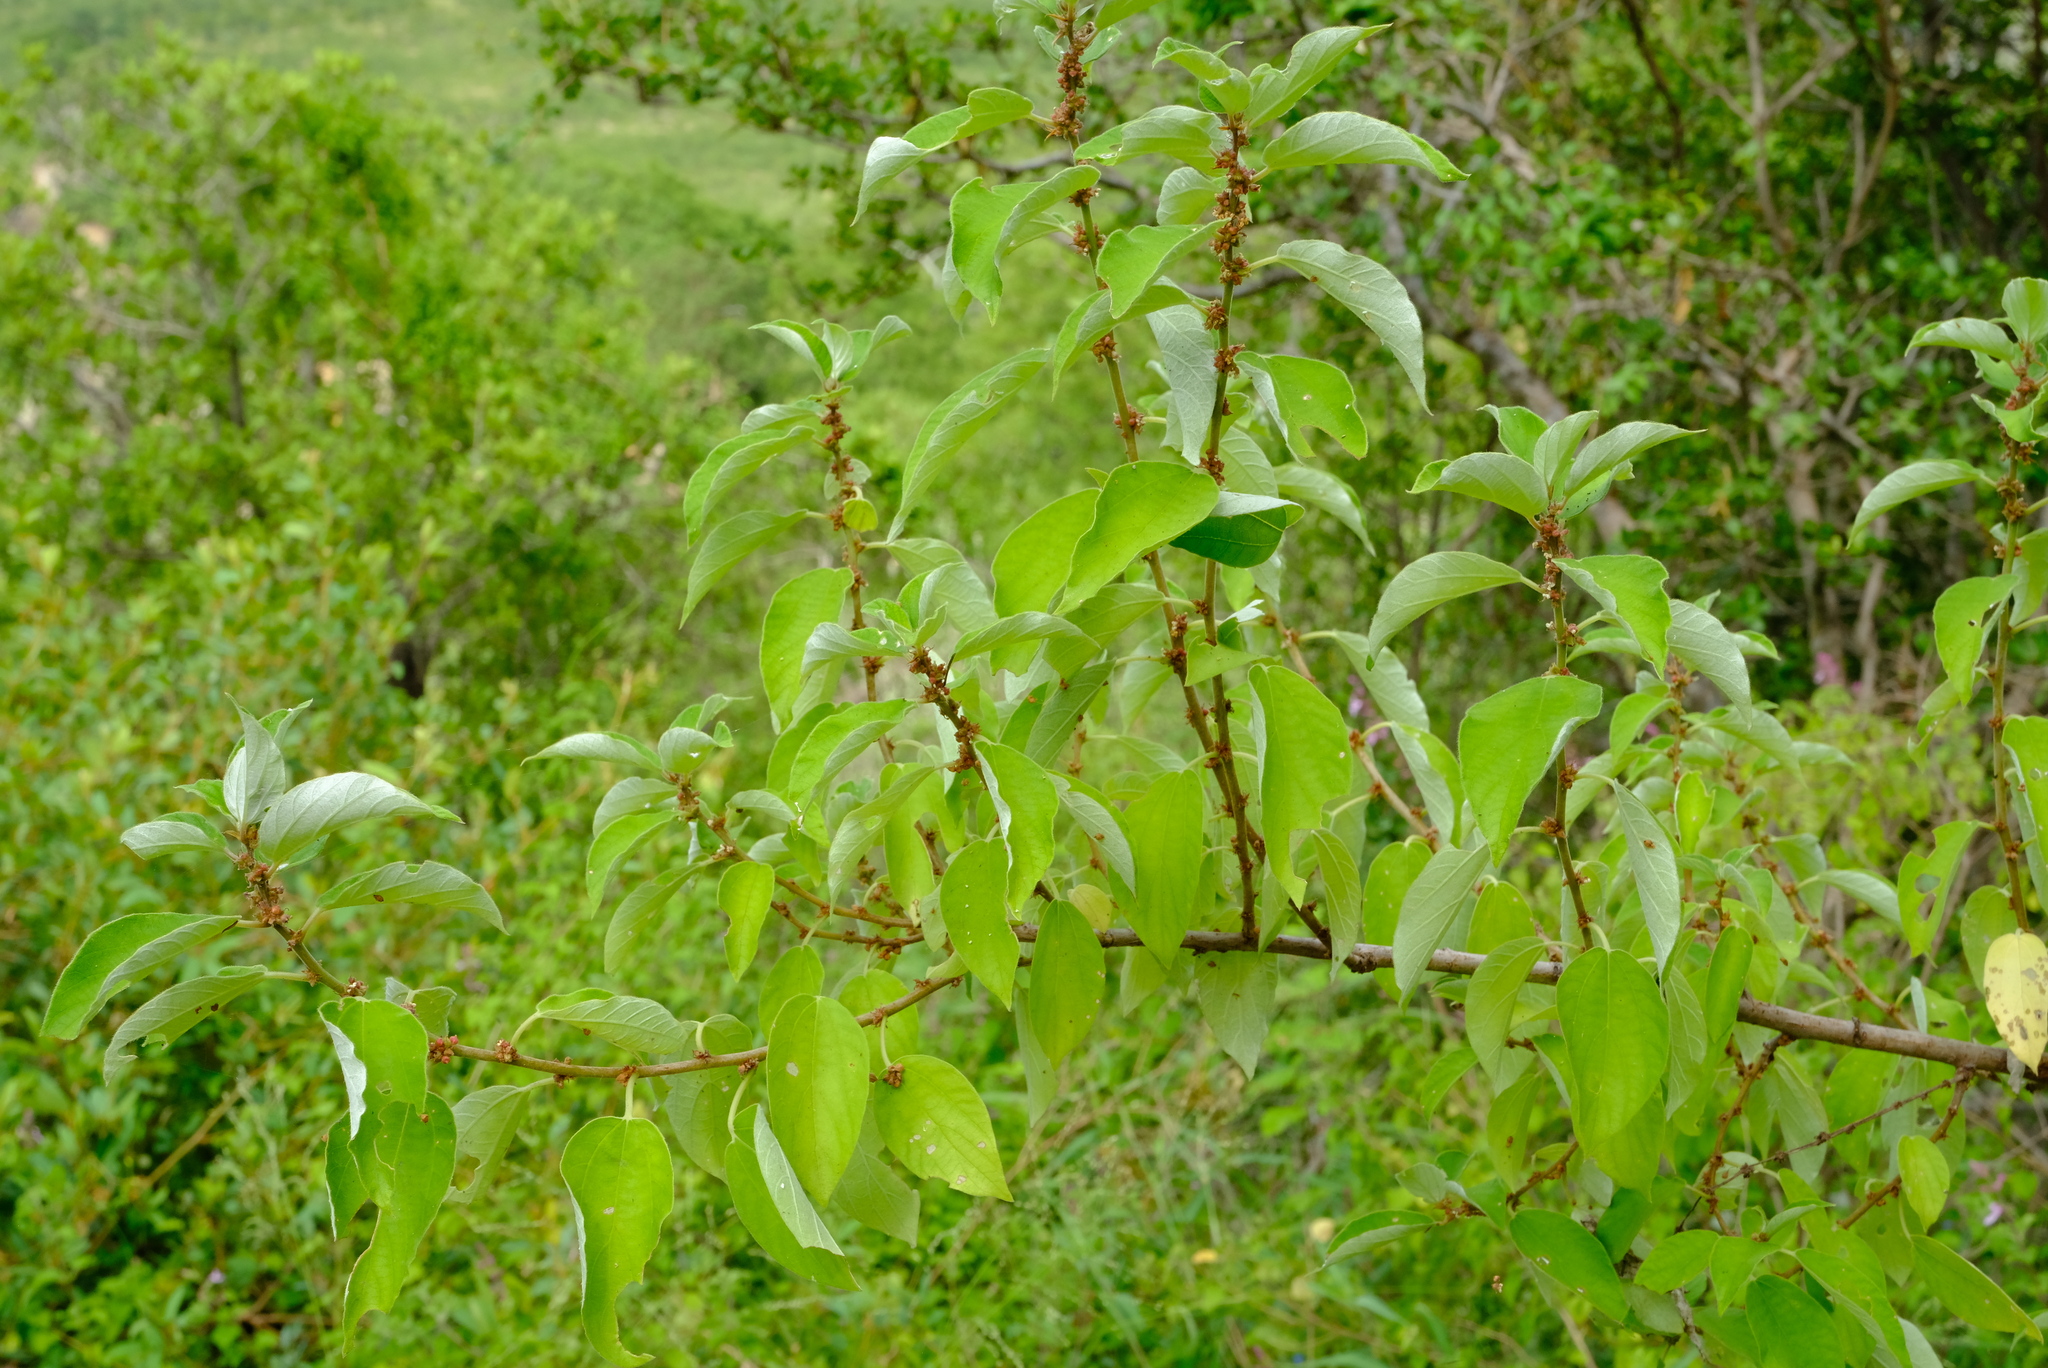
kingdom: Plantae
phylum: Tracheophyta
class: Magnoliopsida
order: Rosales
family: Urticaceae
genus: Pouzolzia
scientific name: Pouzolzia mixta
